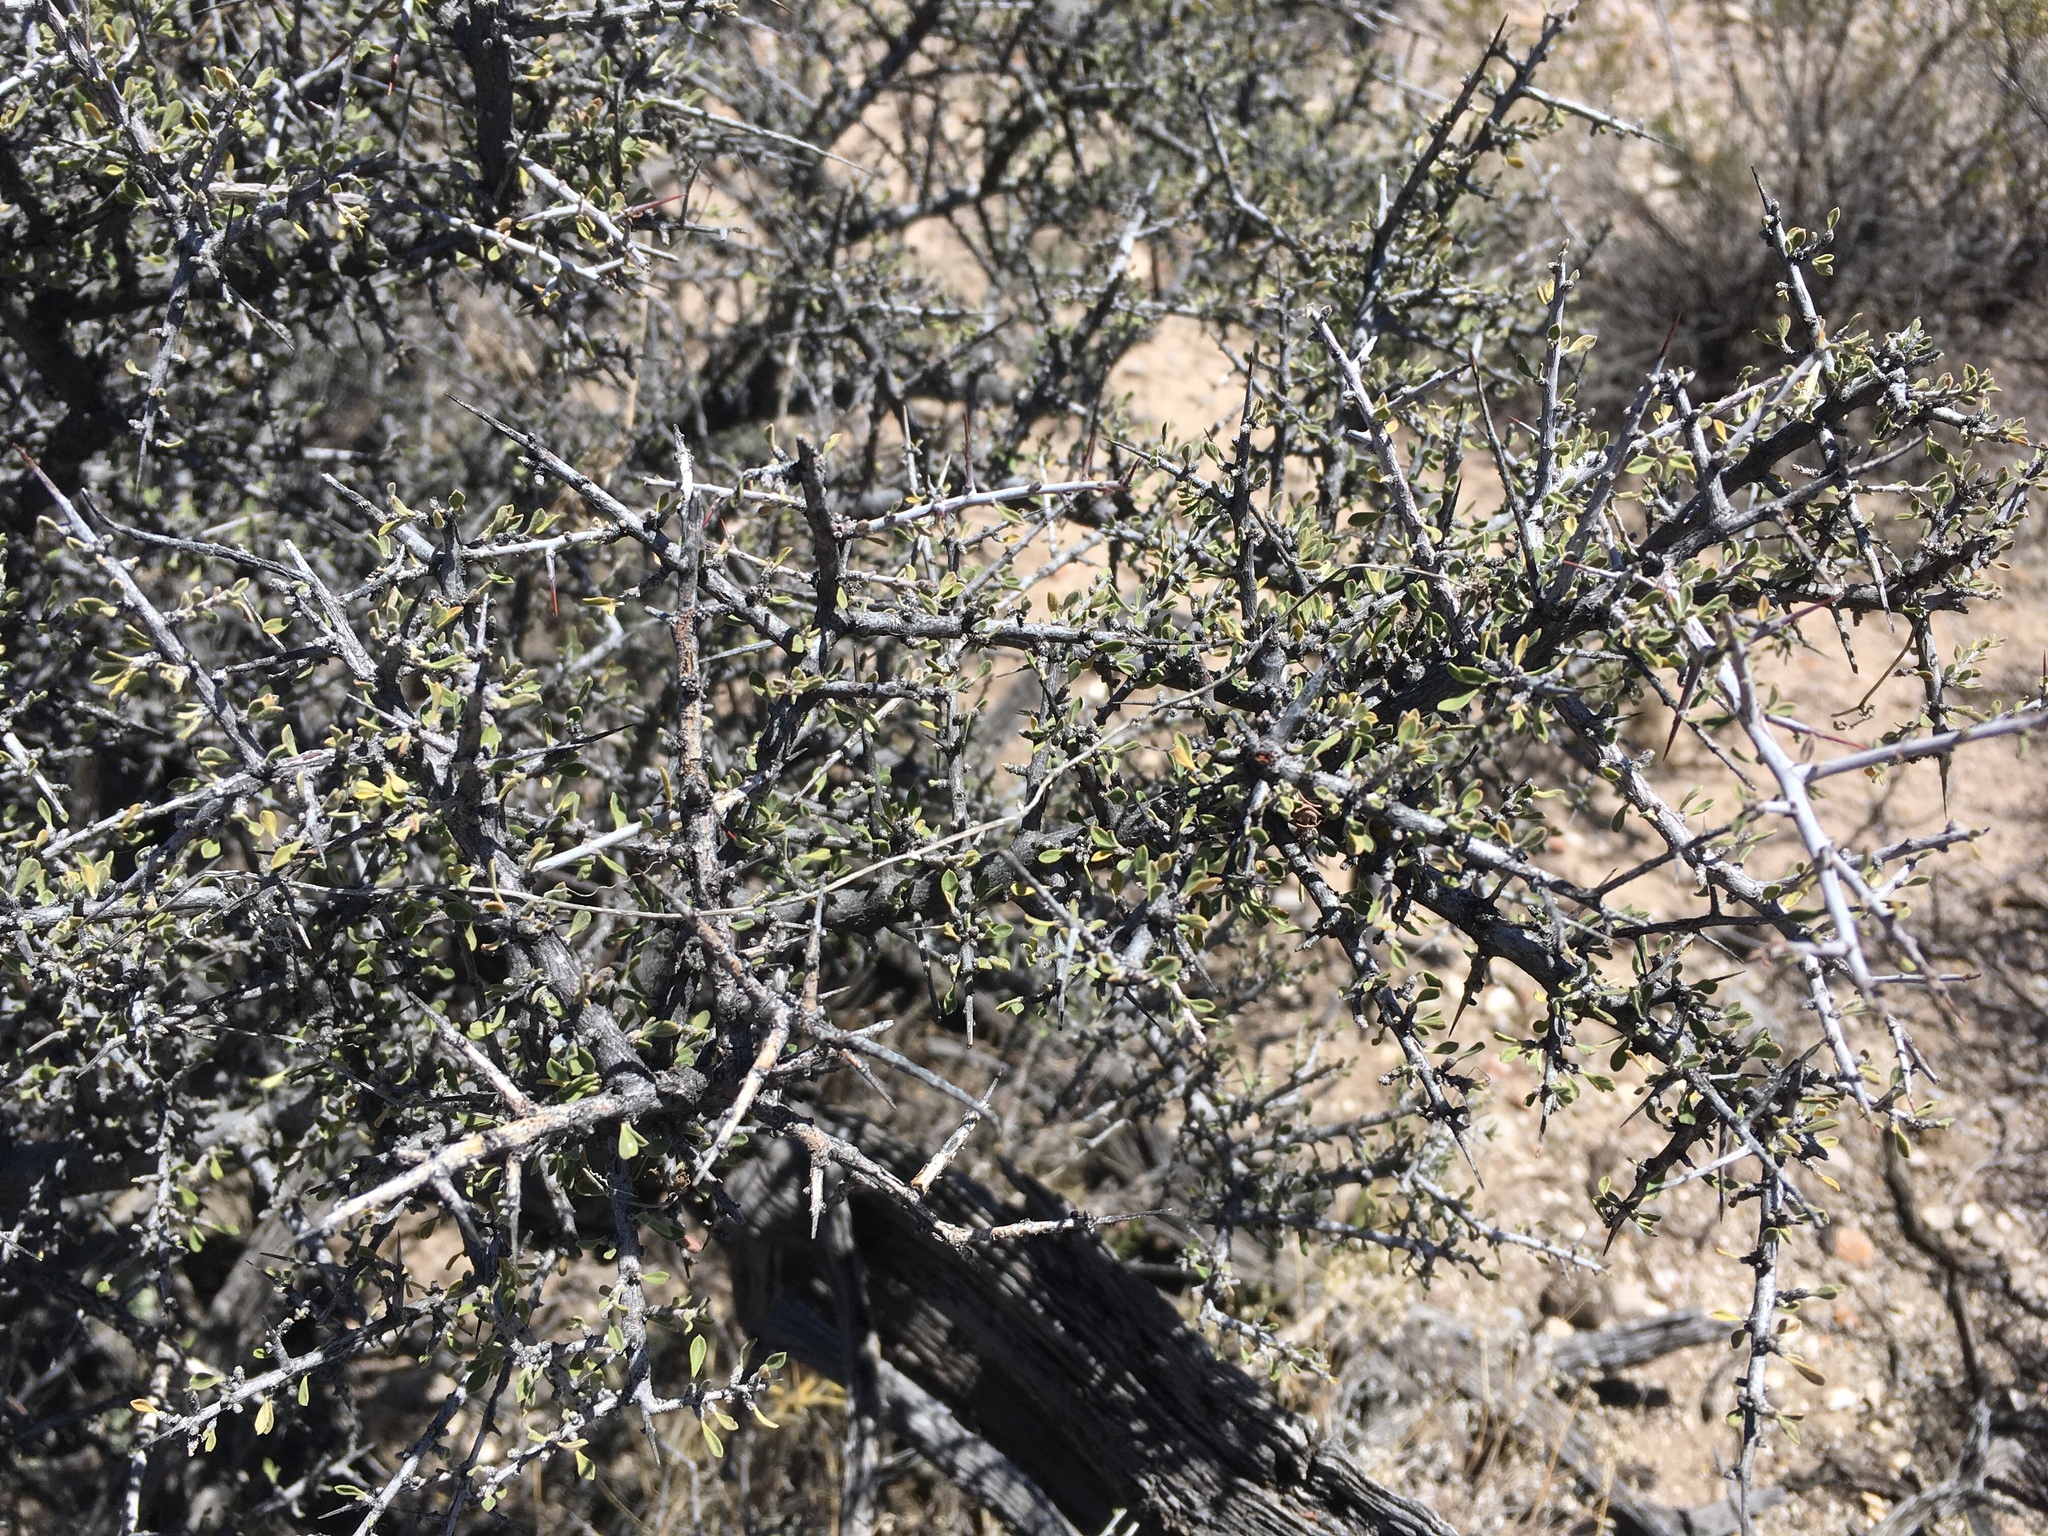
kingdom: Plantae
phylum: Tracheophyta
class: Magnoliopsida
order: Rosales
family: Rhamnaceae
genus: Condalia
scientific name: Condalia warnockii
